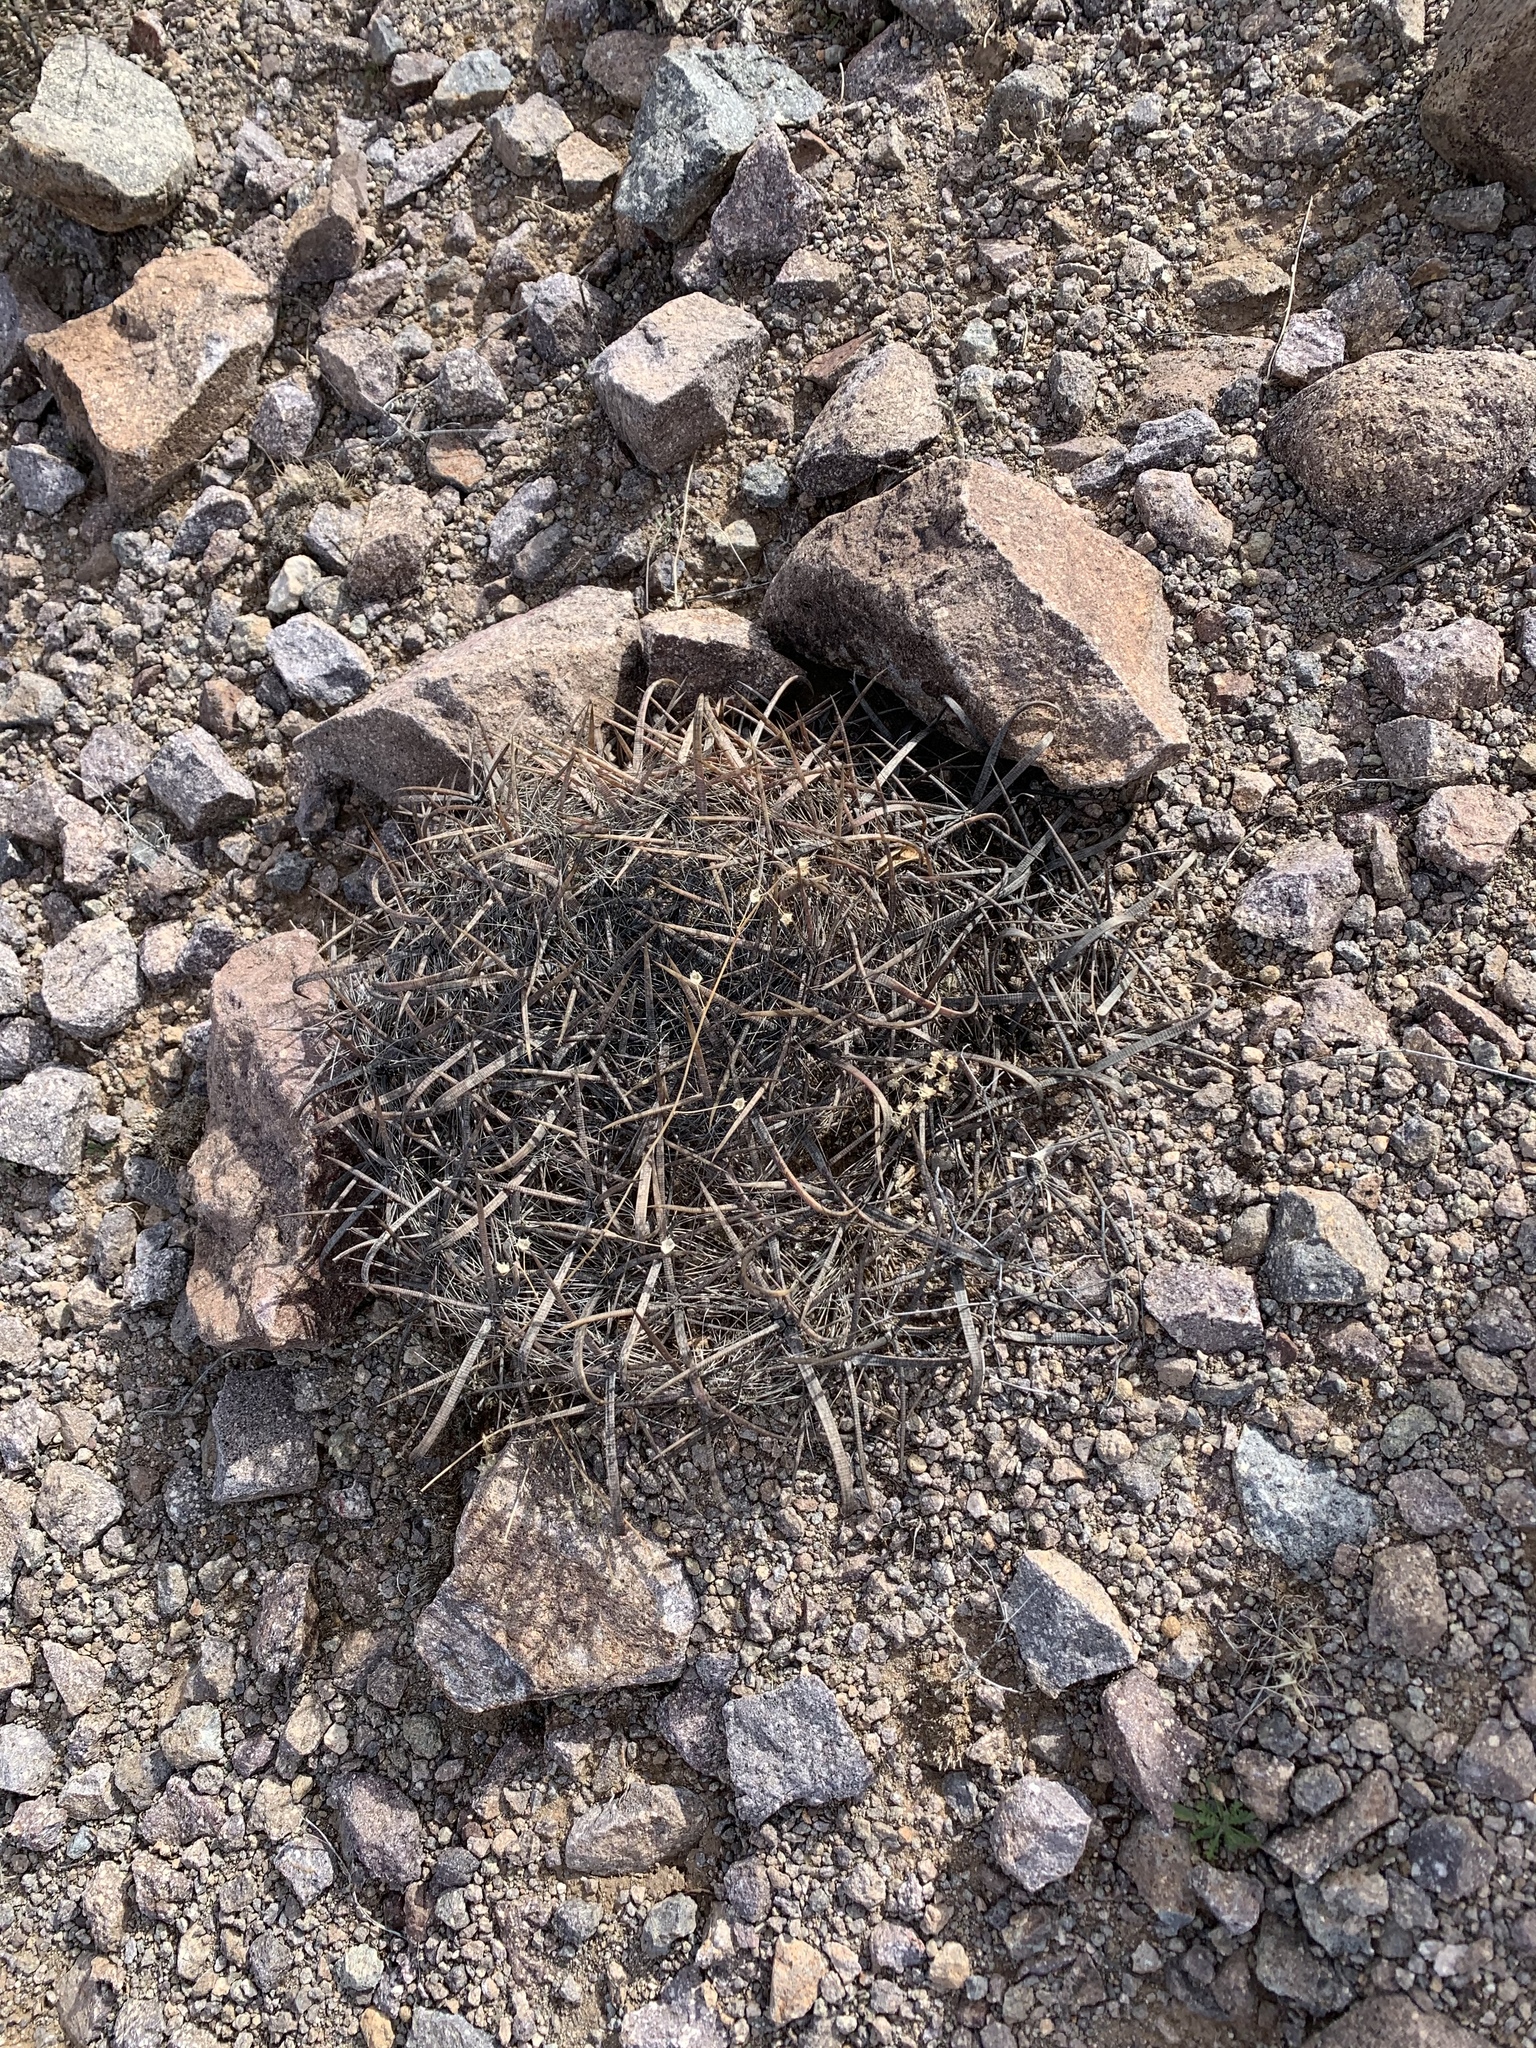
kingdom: Plantae
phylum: Tracheophyta
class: Magnoliopsida
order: Caryophyllales
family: Cactaceae
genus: Ferocactus
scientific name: Ferocactus wislizeni
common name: Candy barrel cactus
